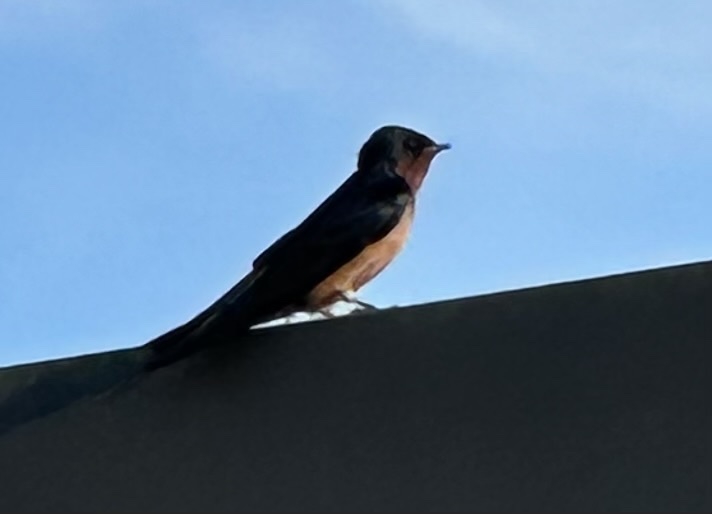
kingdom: Animalia
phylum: Chordata
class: Aves
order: Passeriformes
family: Hirundinidae
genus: Hirundo
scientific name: Hirundo rustica
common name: Barn swallow
